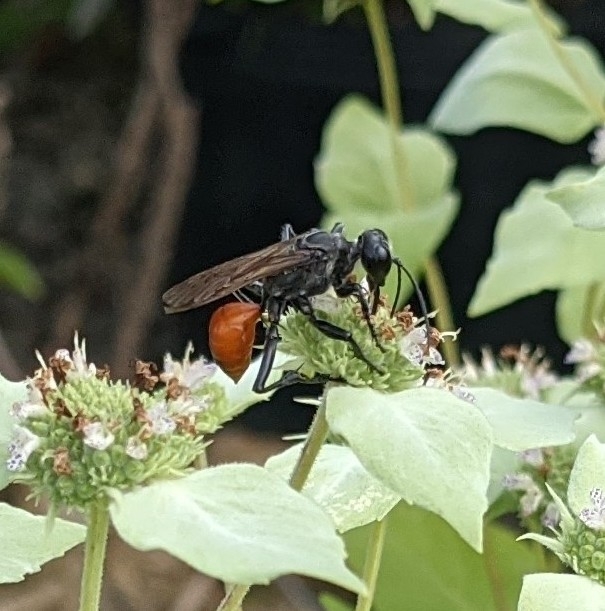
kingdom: Animalia
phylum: Arthropoda
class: Insecta
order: Hymenoptera
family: Sphecidae
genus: Prionyx
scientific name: Prionyx
